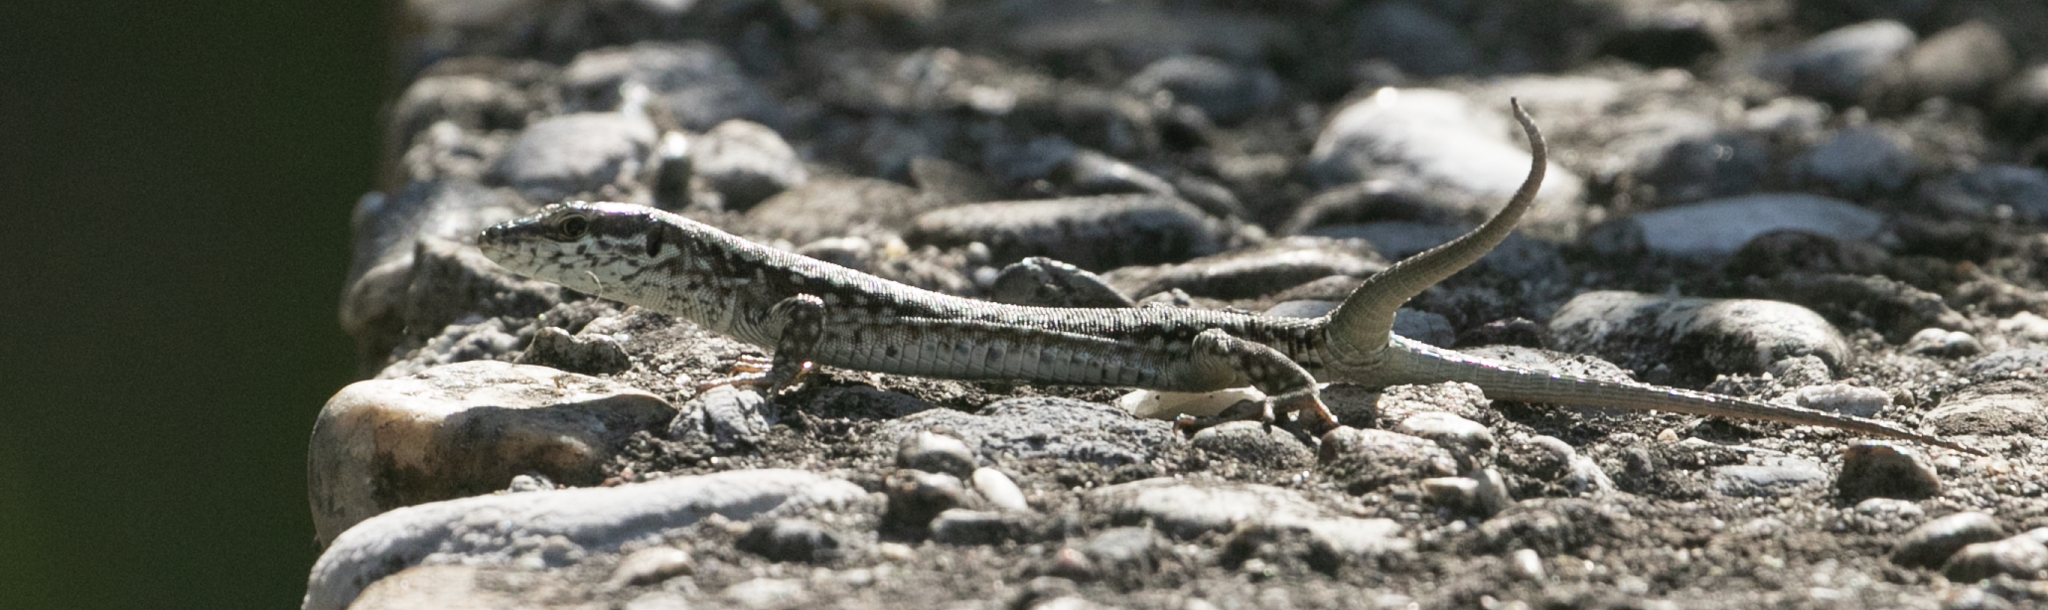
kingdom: Animalia
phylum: Chordata
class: Squamata
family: Lacertidae
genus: Podarcis
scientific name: Podarcis muralis
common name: Common wall lizard
